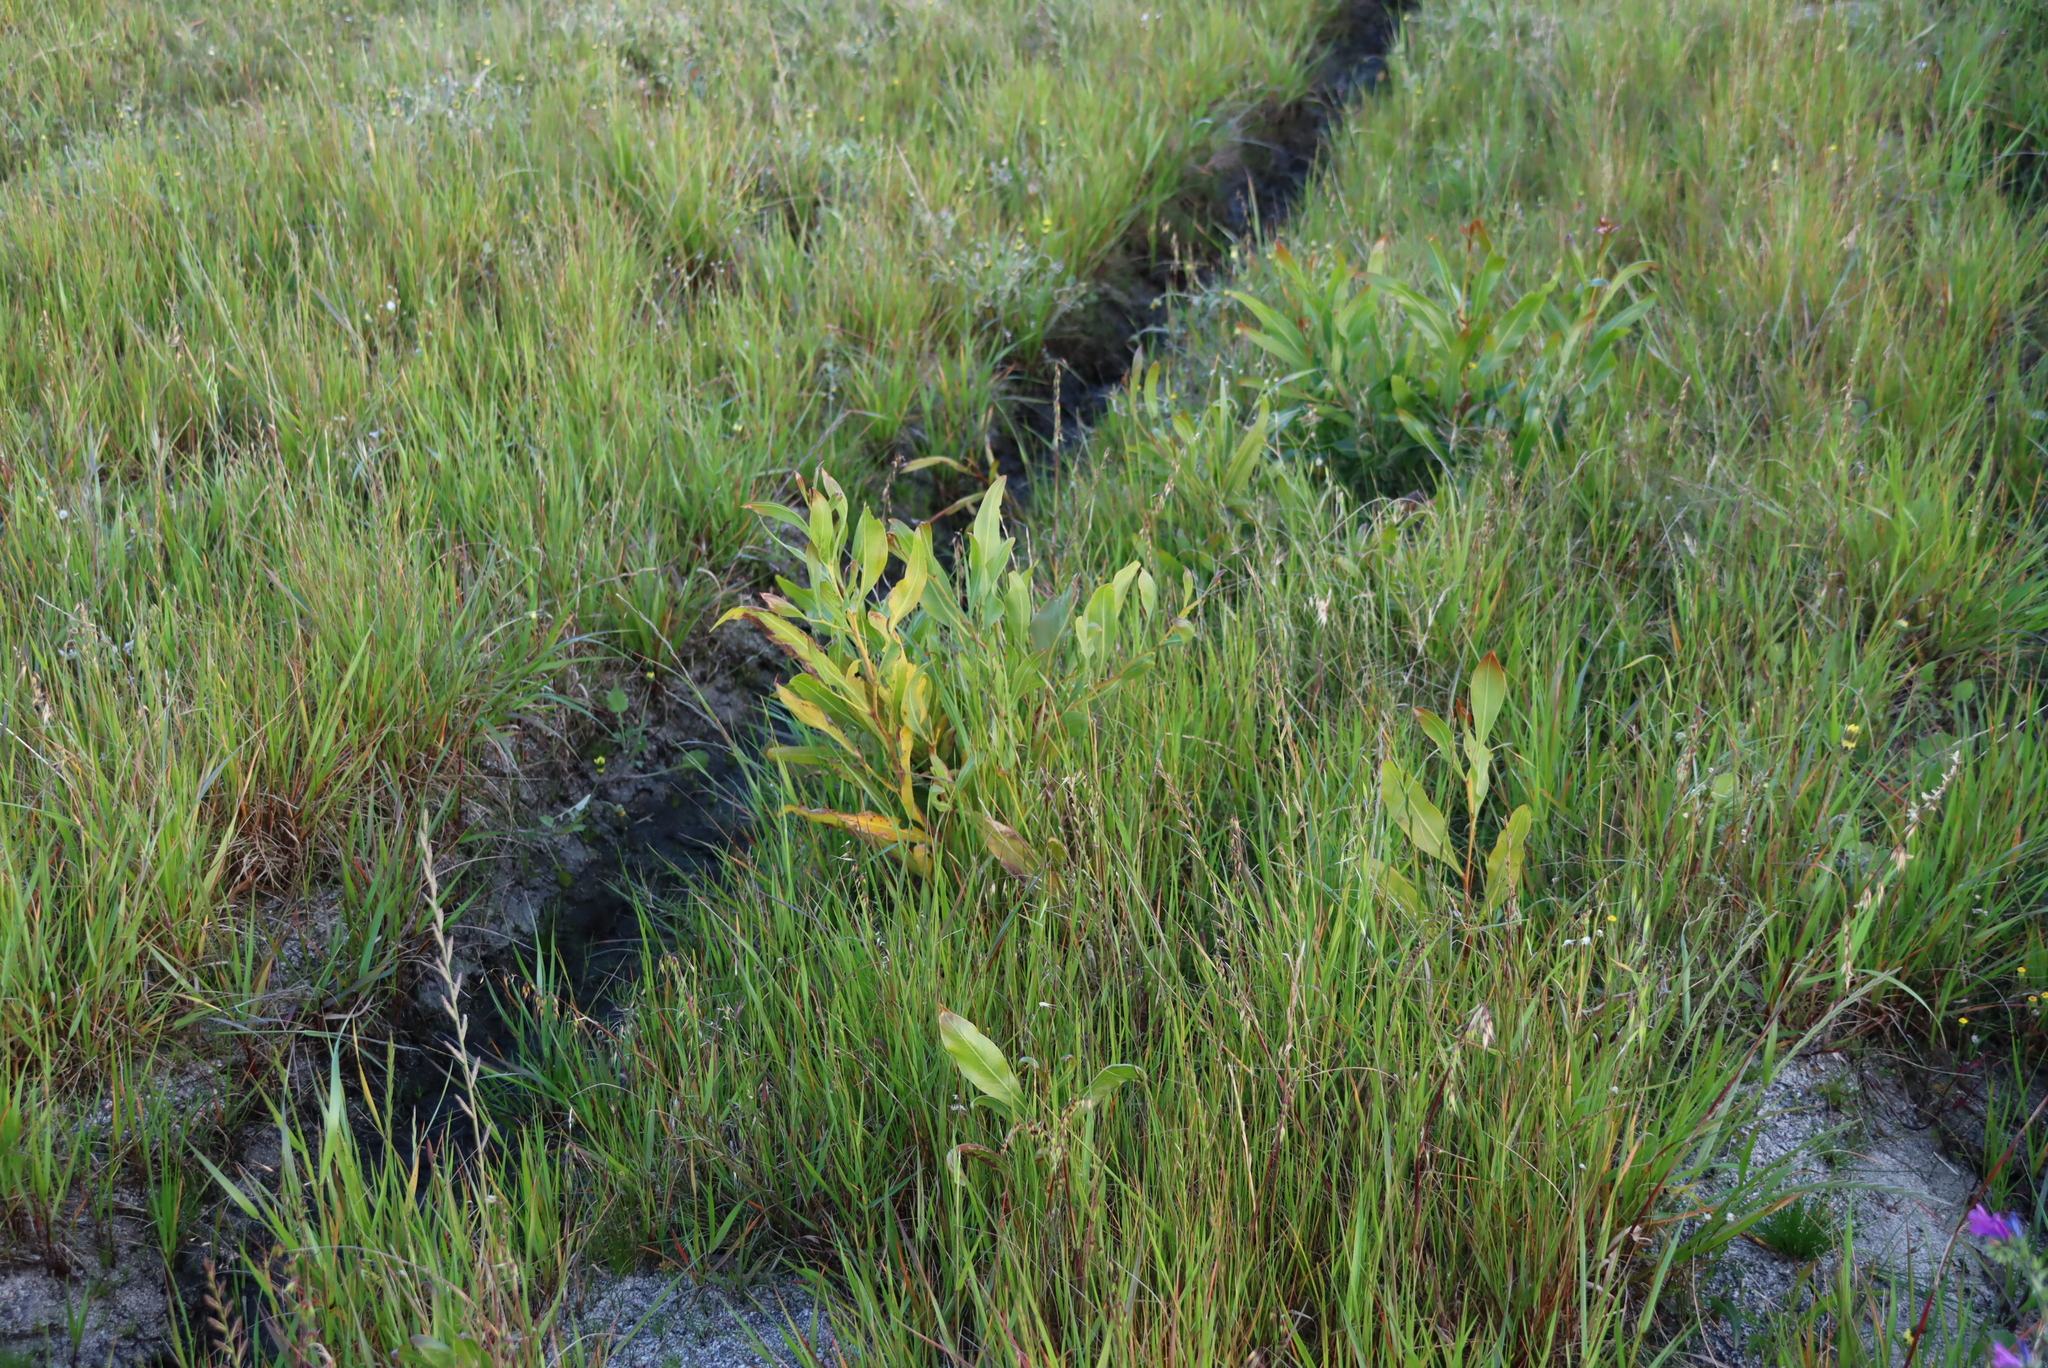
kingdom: Plantae
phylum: Tracheophyta
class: Magnoliopsida
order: Fabales
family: Fabaceae
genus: Acacia
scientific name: Acacia saligna
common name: Orange wattle
